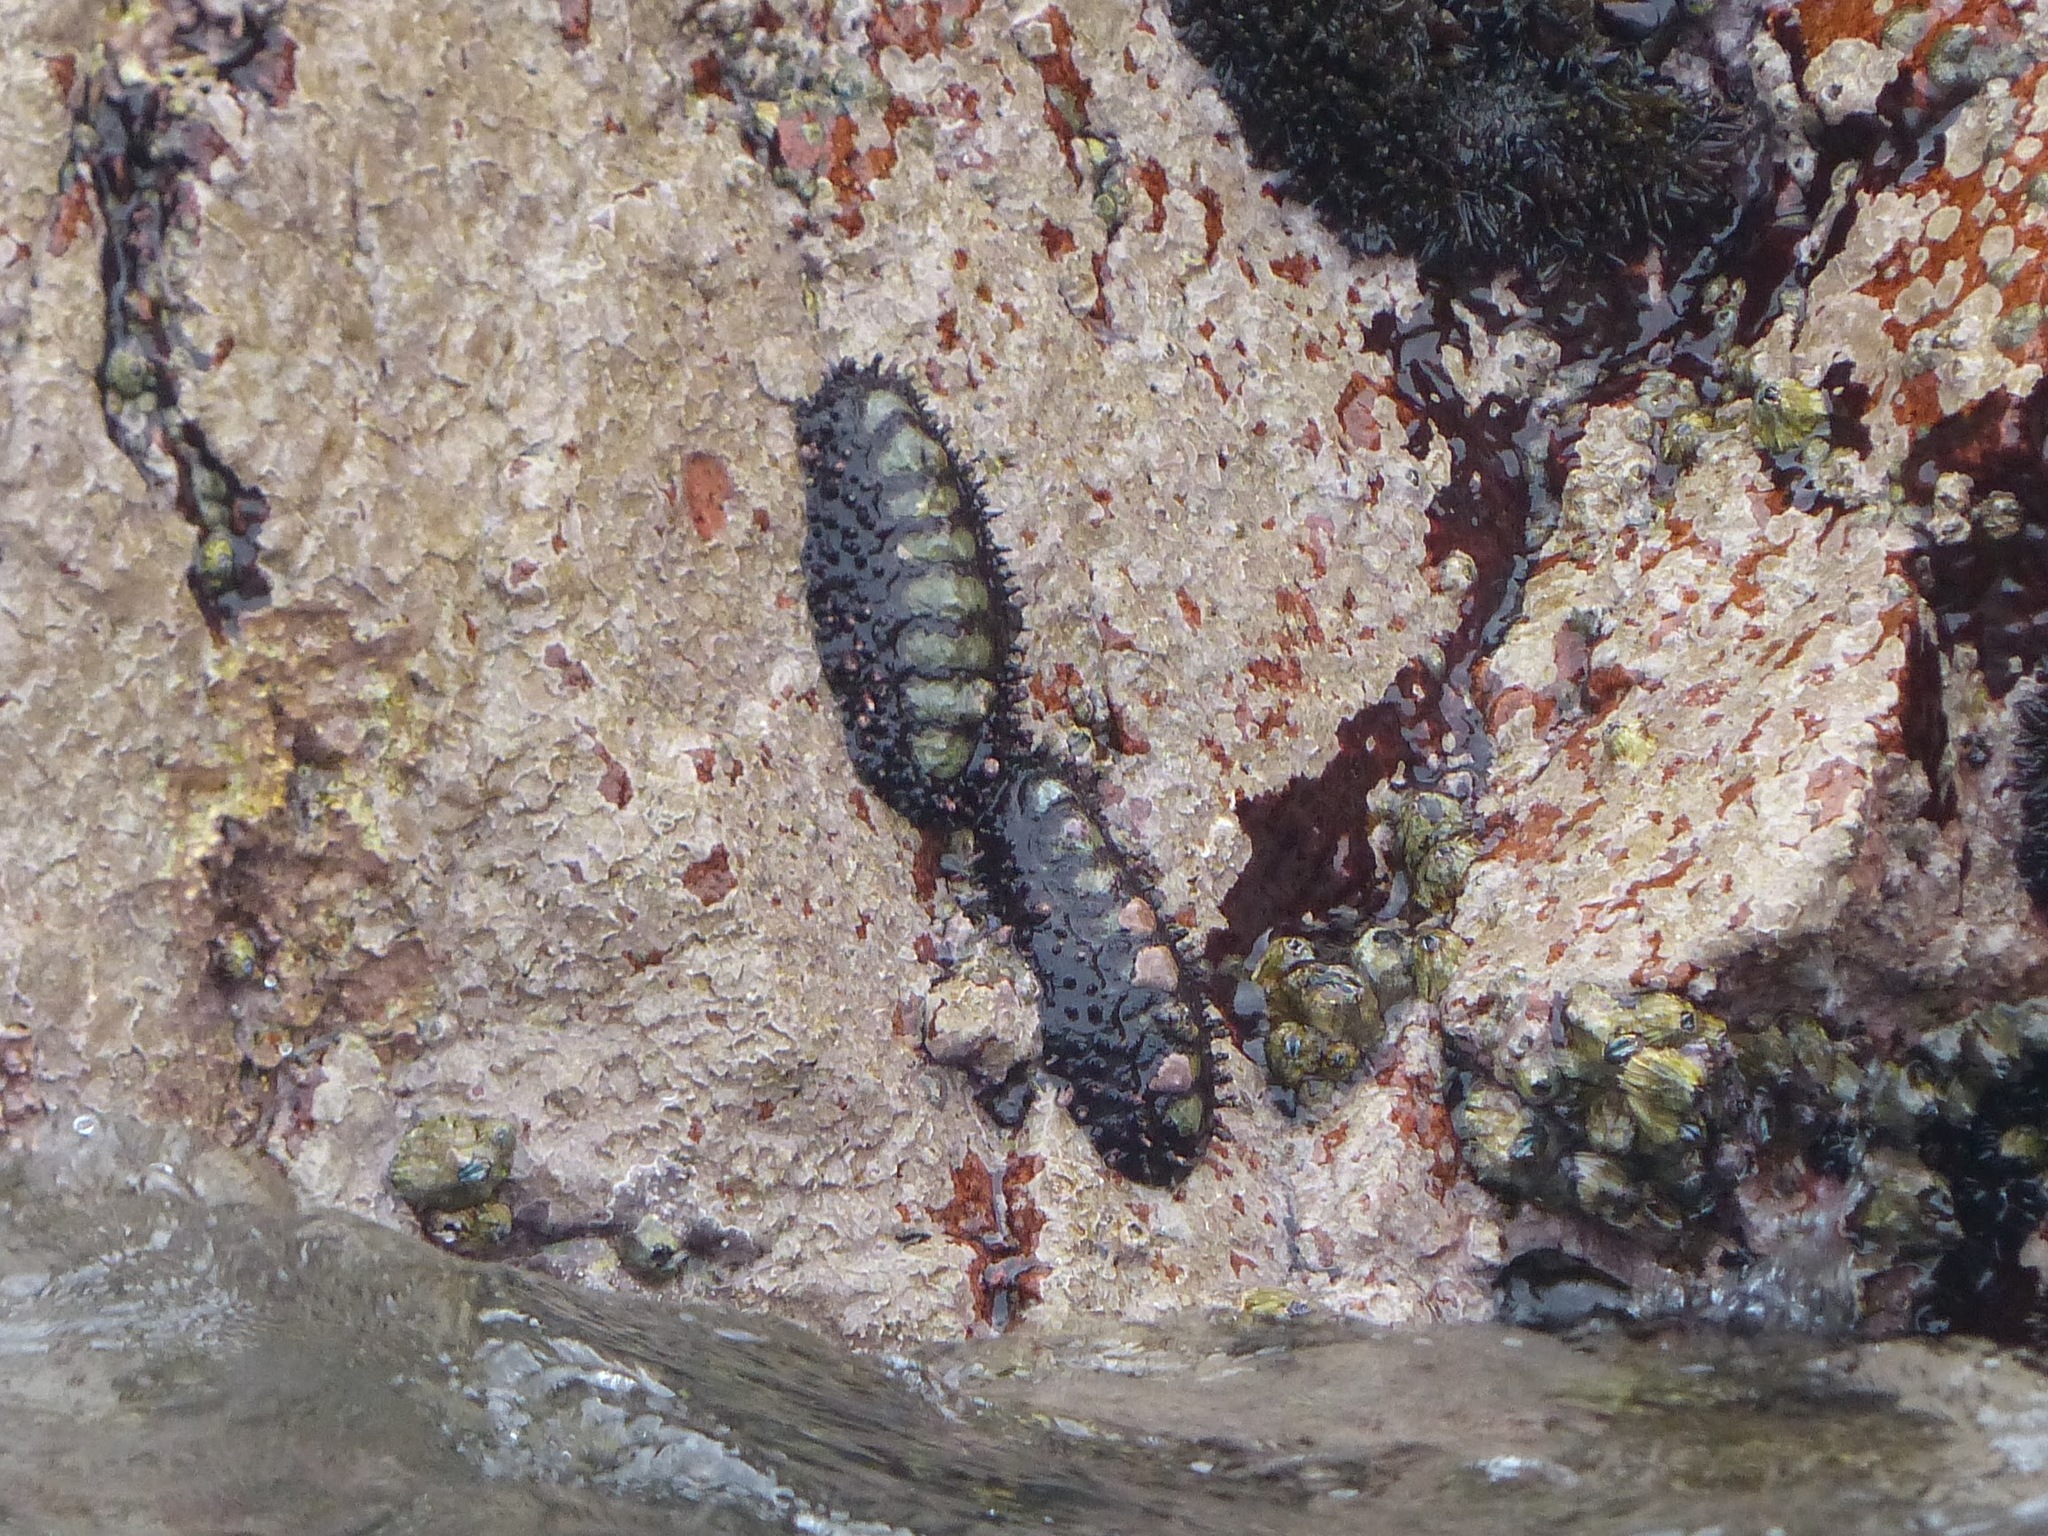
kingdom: Animalia
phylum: Mollusca
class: Polyplacophora
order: Chitonida
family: Chitonidae
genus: Enoplochiton
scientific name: Enoplochiton echinatus
